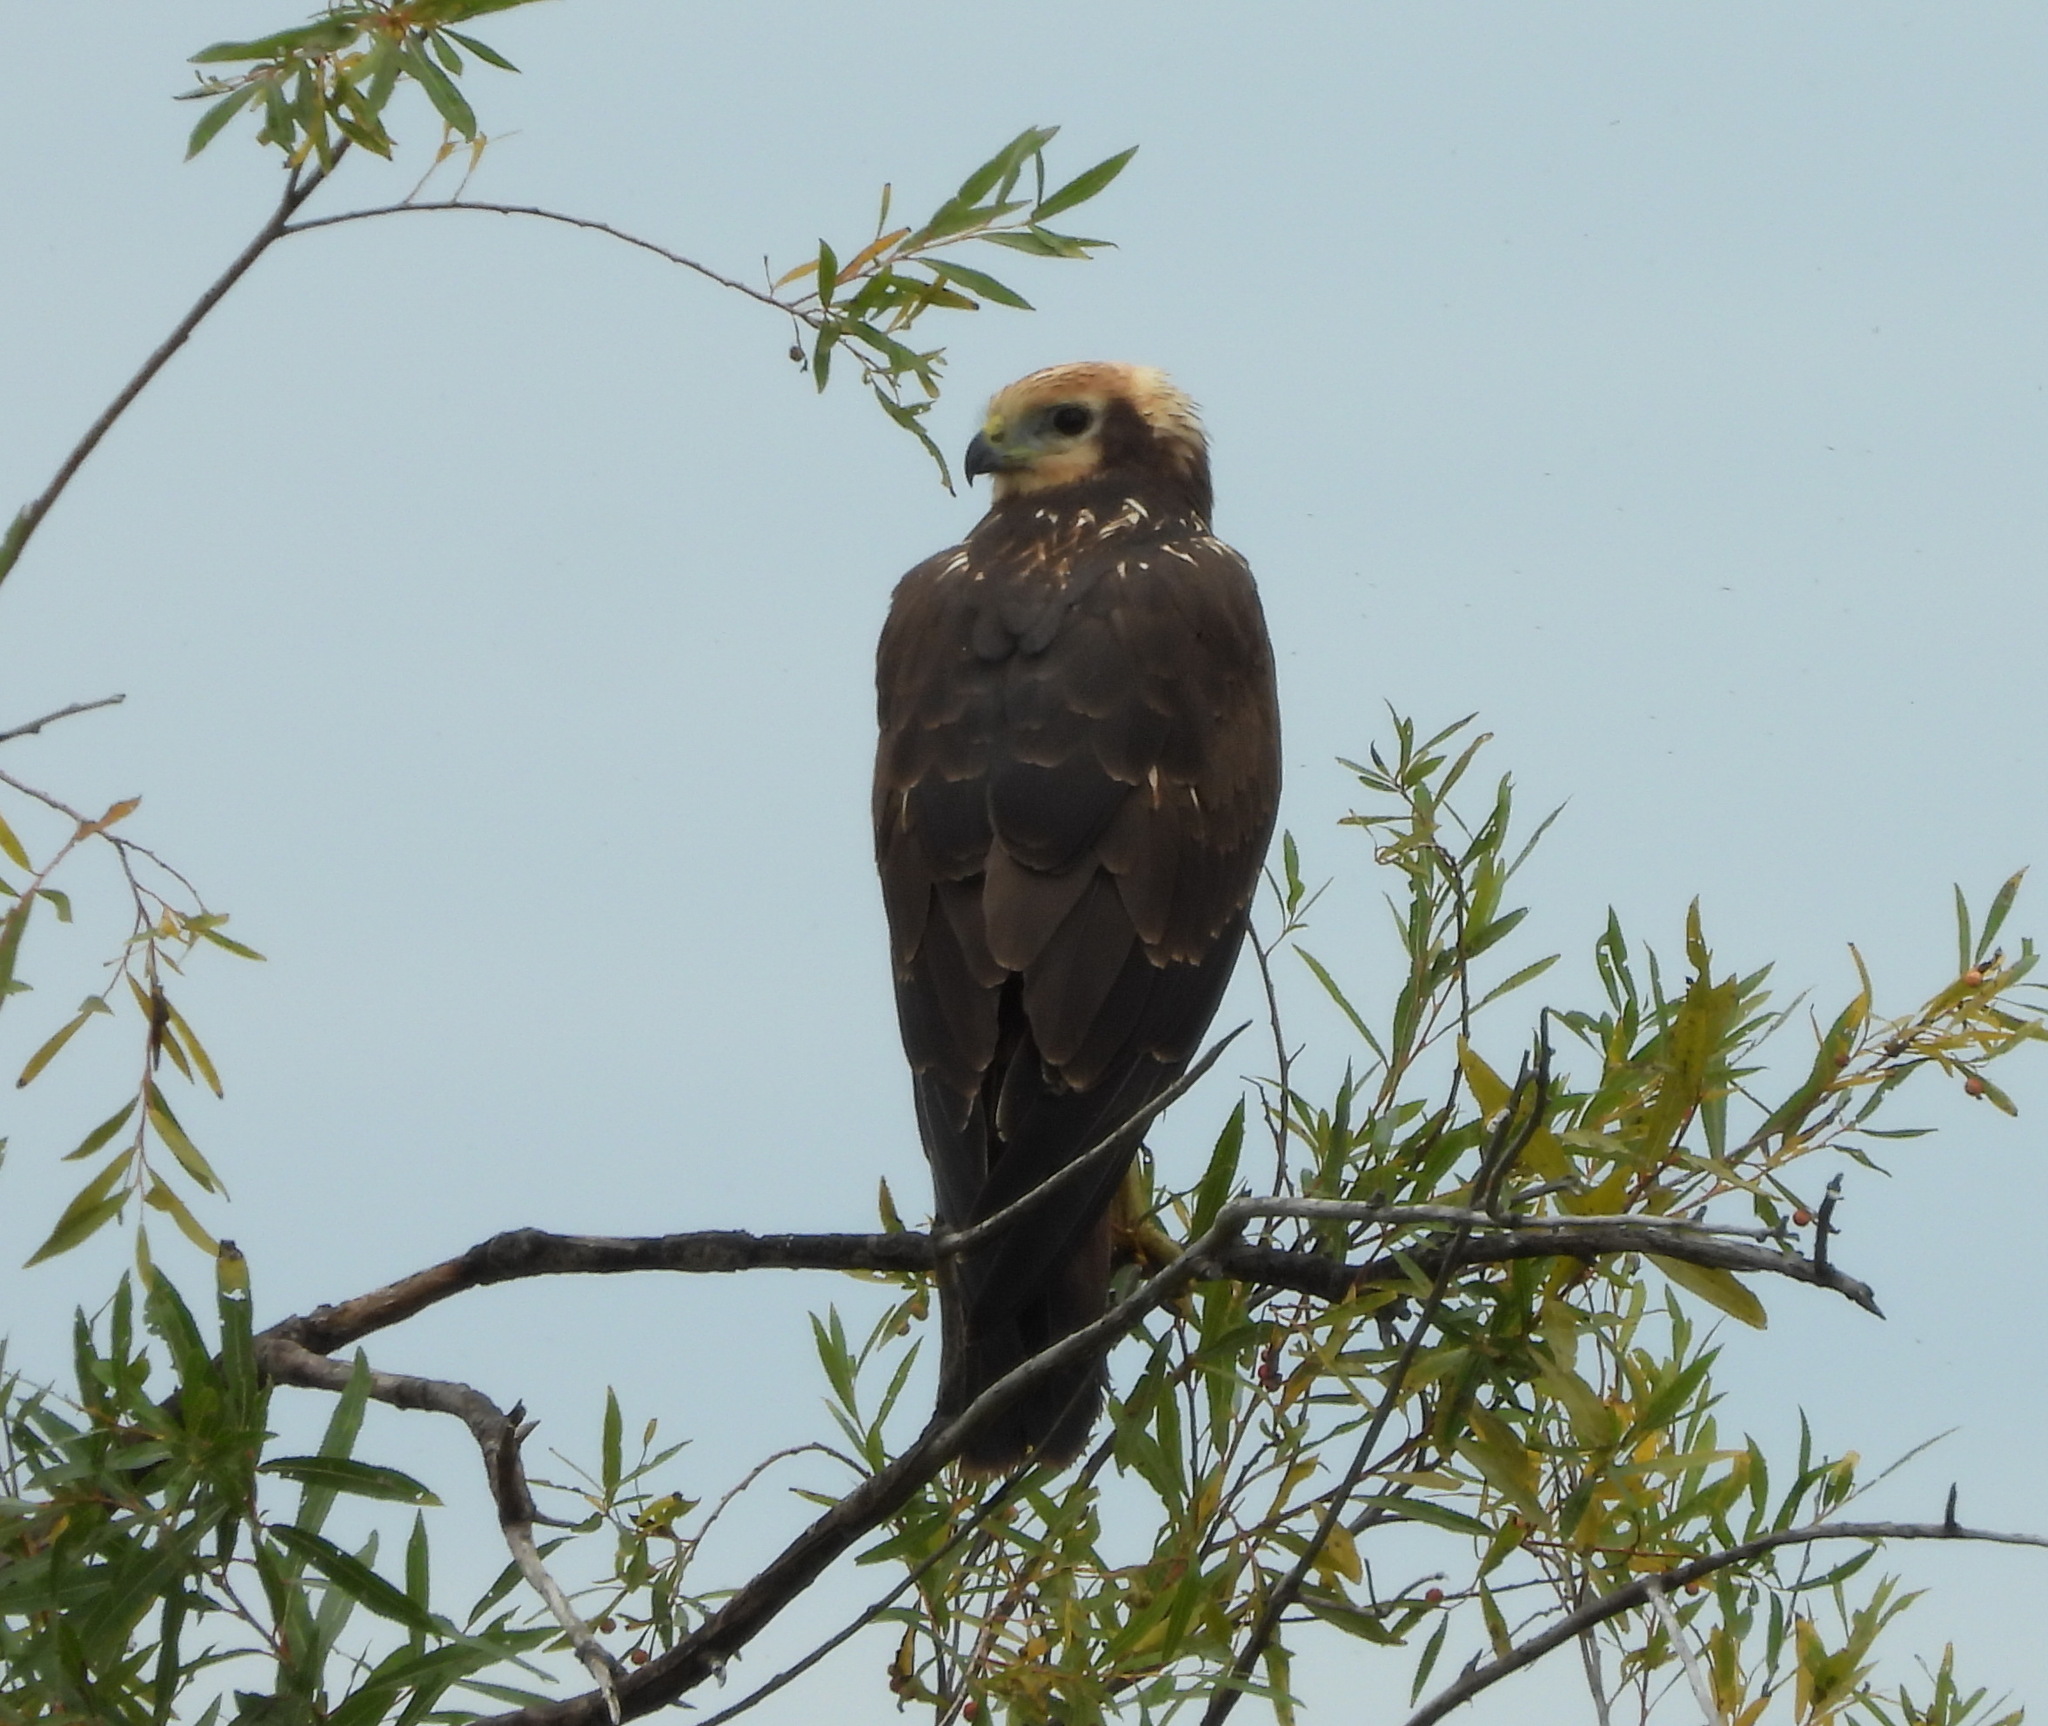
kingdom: Animalia
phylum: Chordata
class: Aves
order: Accipitriformes
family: Accipitridae
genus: Circus
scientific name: Circus spilonotus
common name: Eastern marsh-harrier
